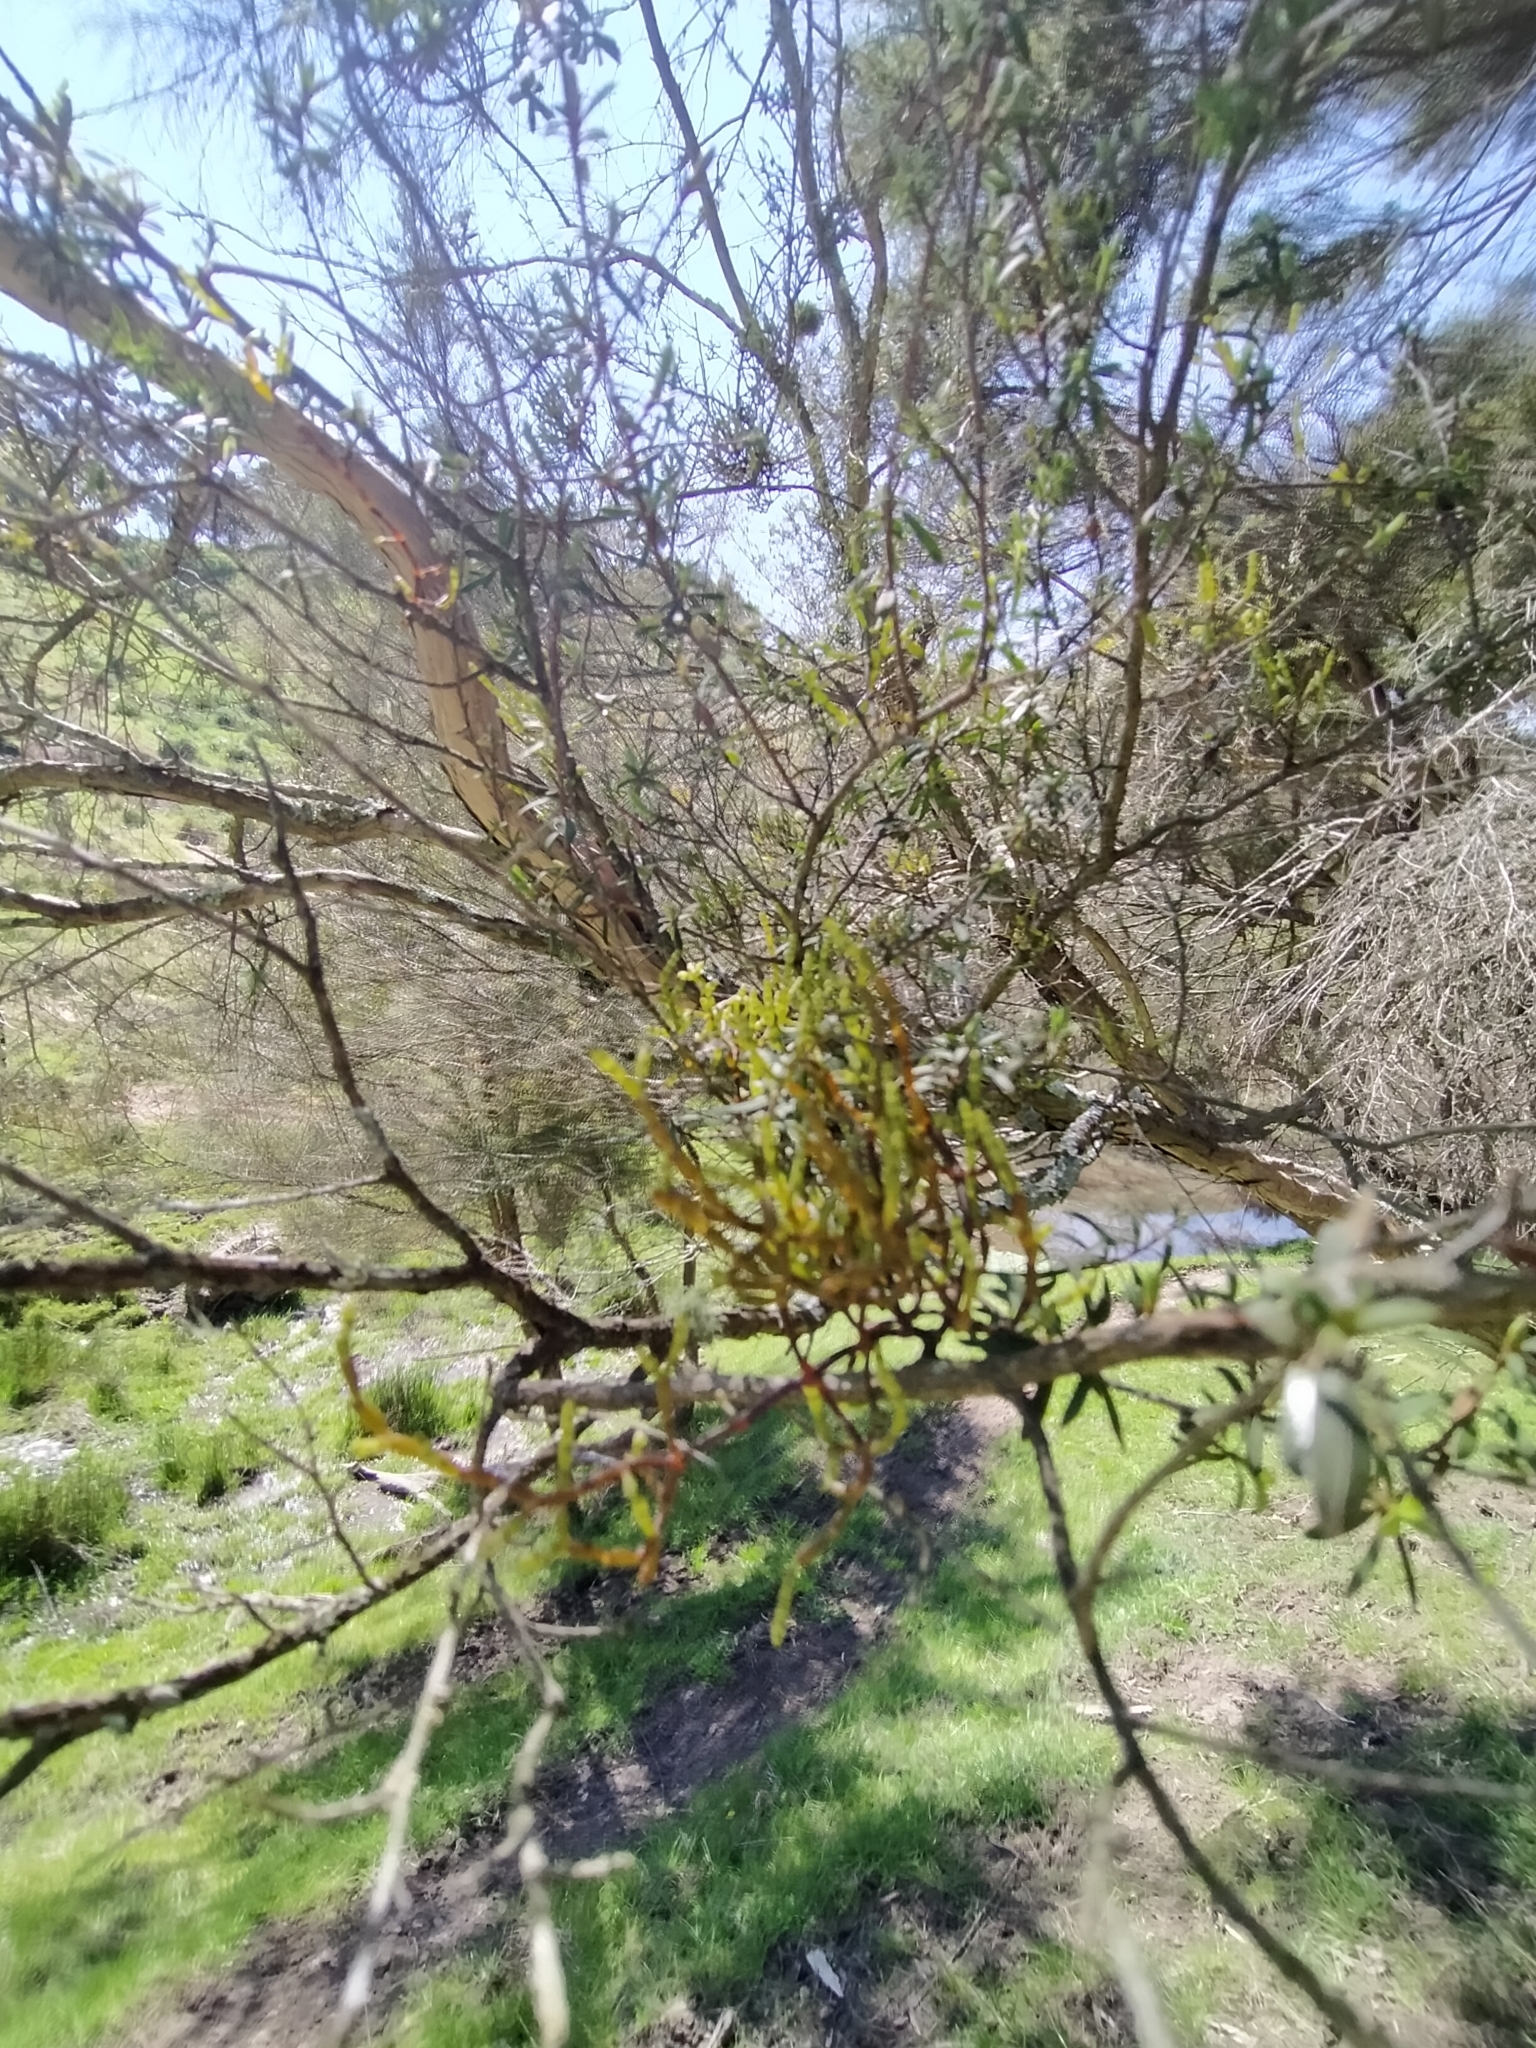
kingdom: Plantae
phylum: Tracheophyta
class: Magnoliopsida
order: Santalales
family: Viscaceae
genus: Korthalsella
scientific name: Korthalsella salicornioides
